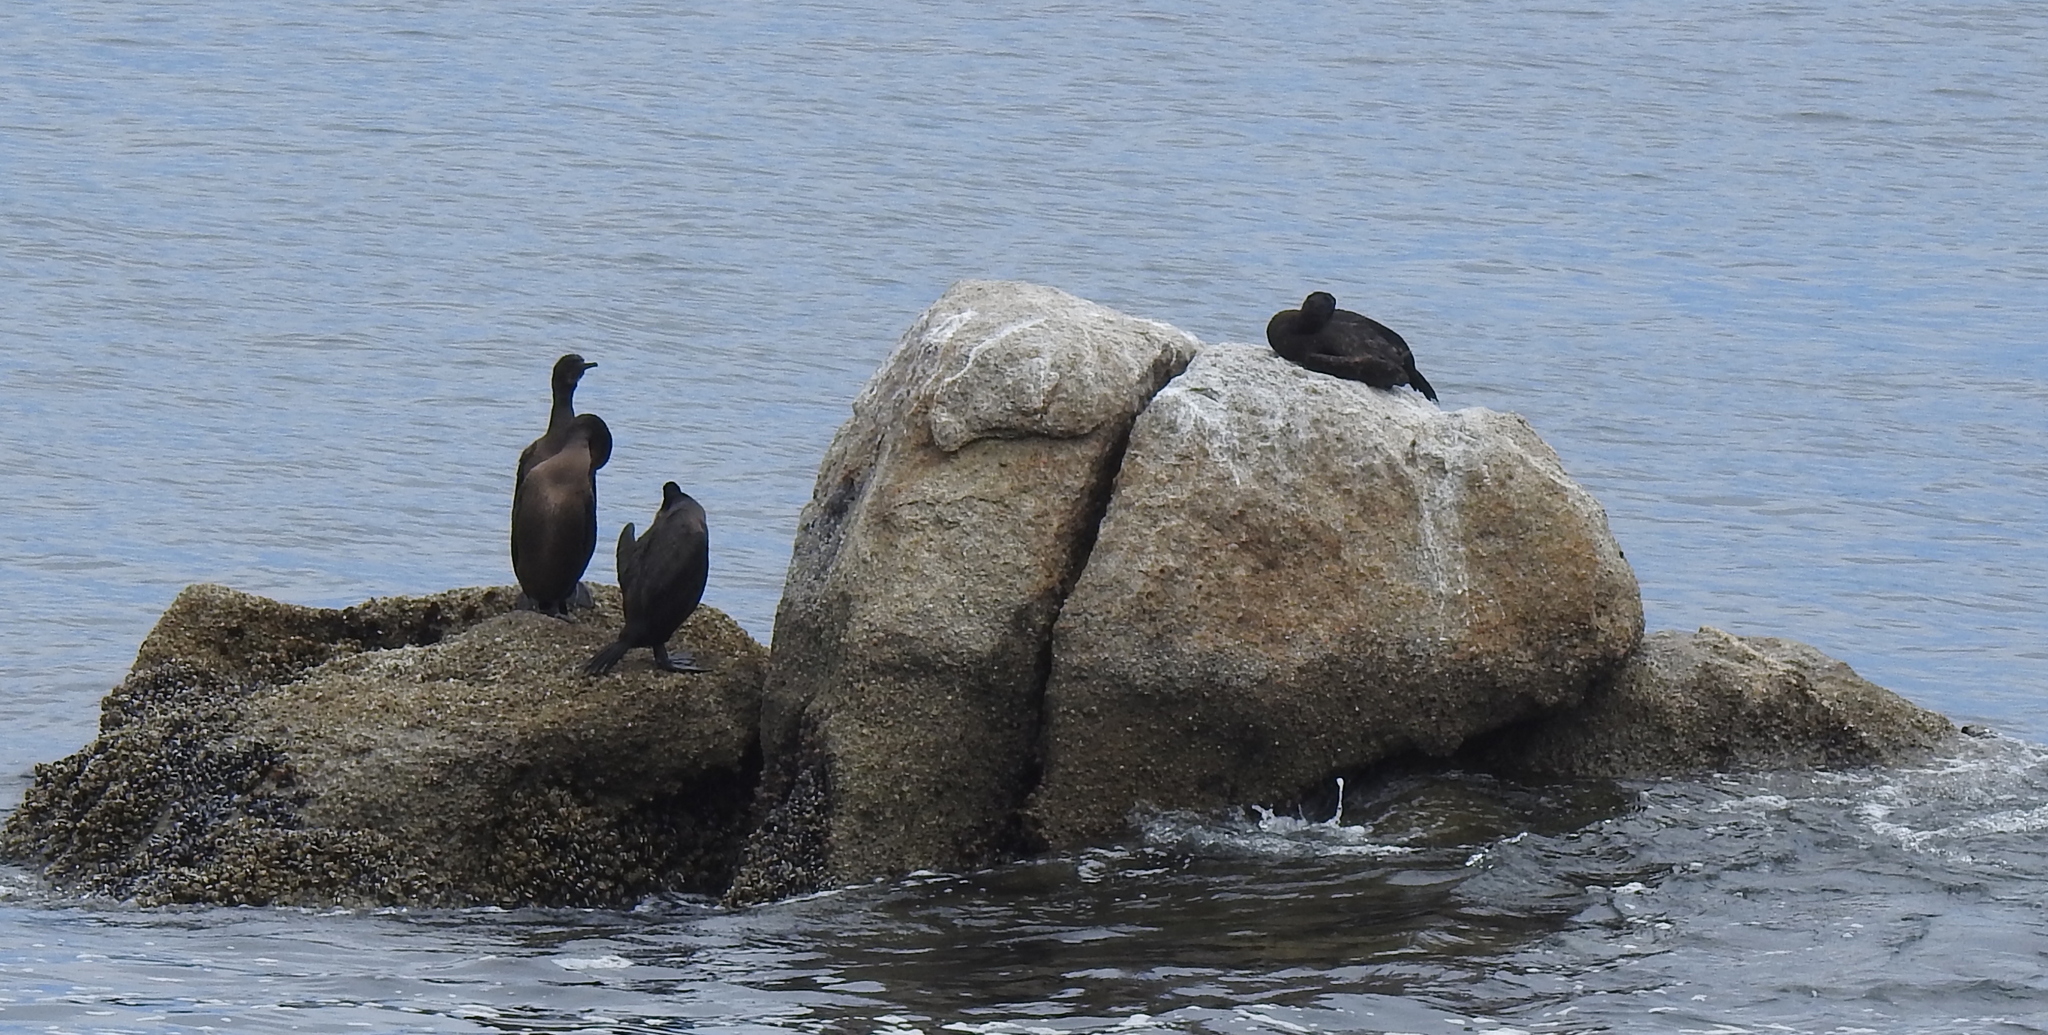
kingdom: Animalia
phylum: Chordata
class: Aves
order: Suliformes
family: Phalacrocoracidae
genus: Urile
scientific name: Urile penicillatus
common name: Brandt's cormorant
